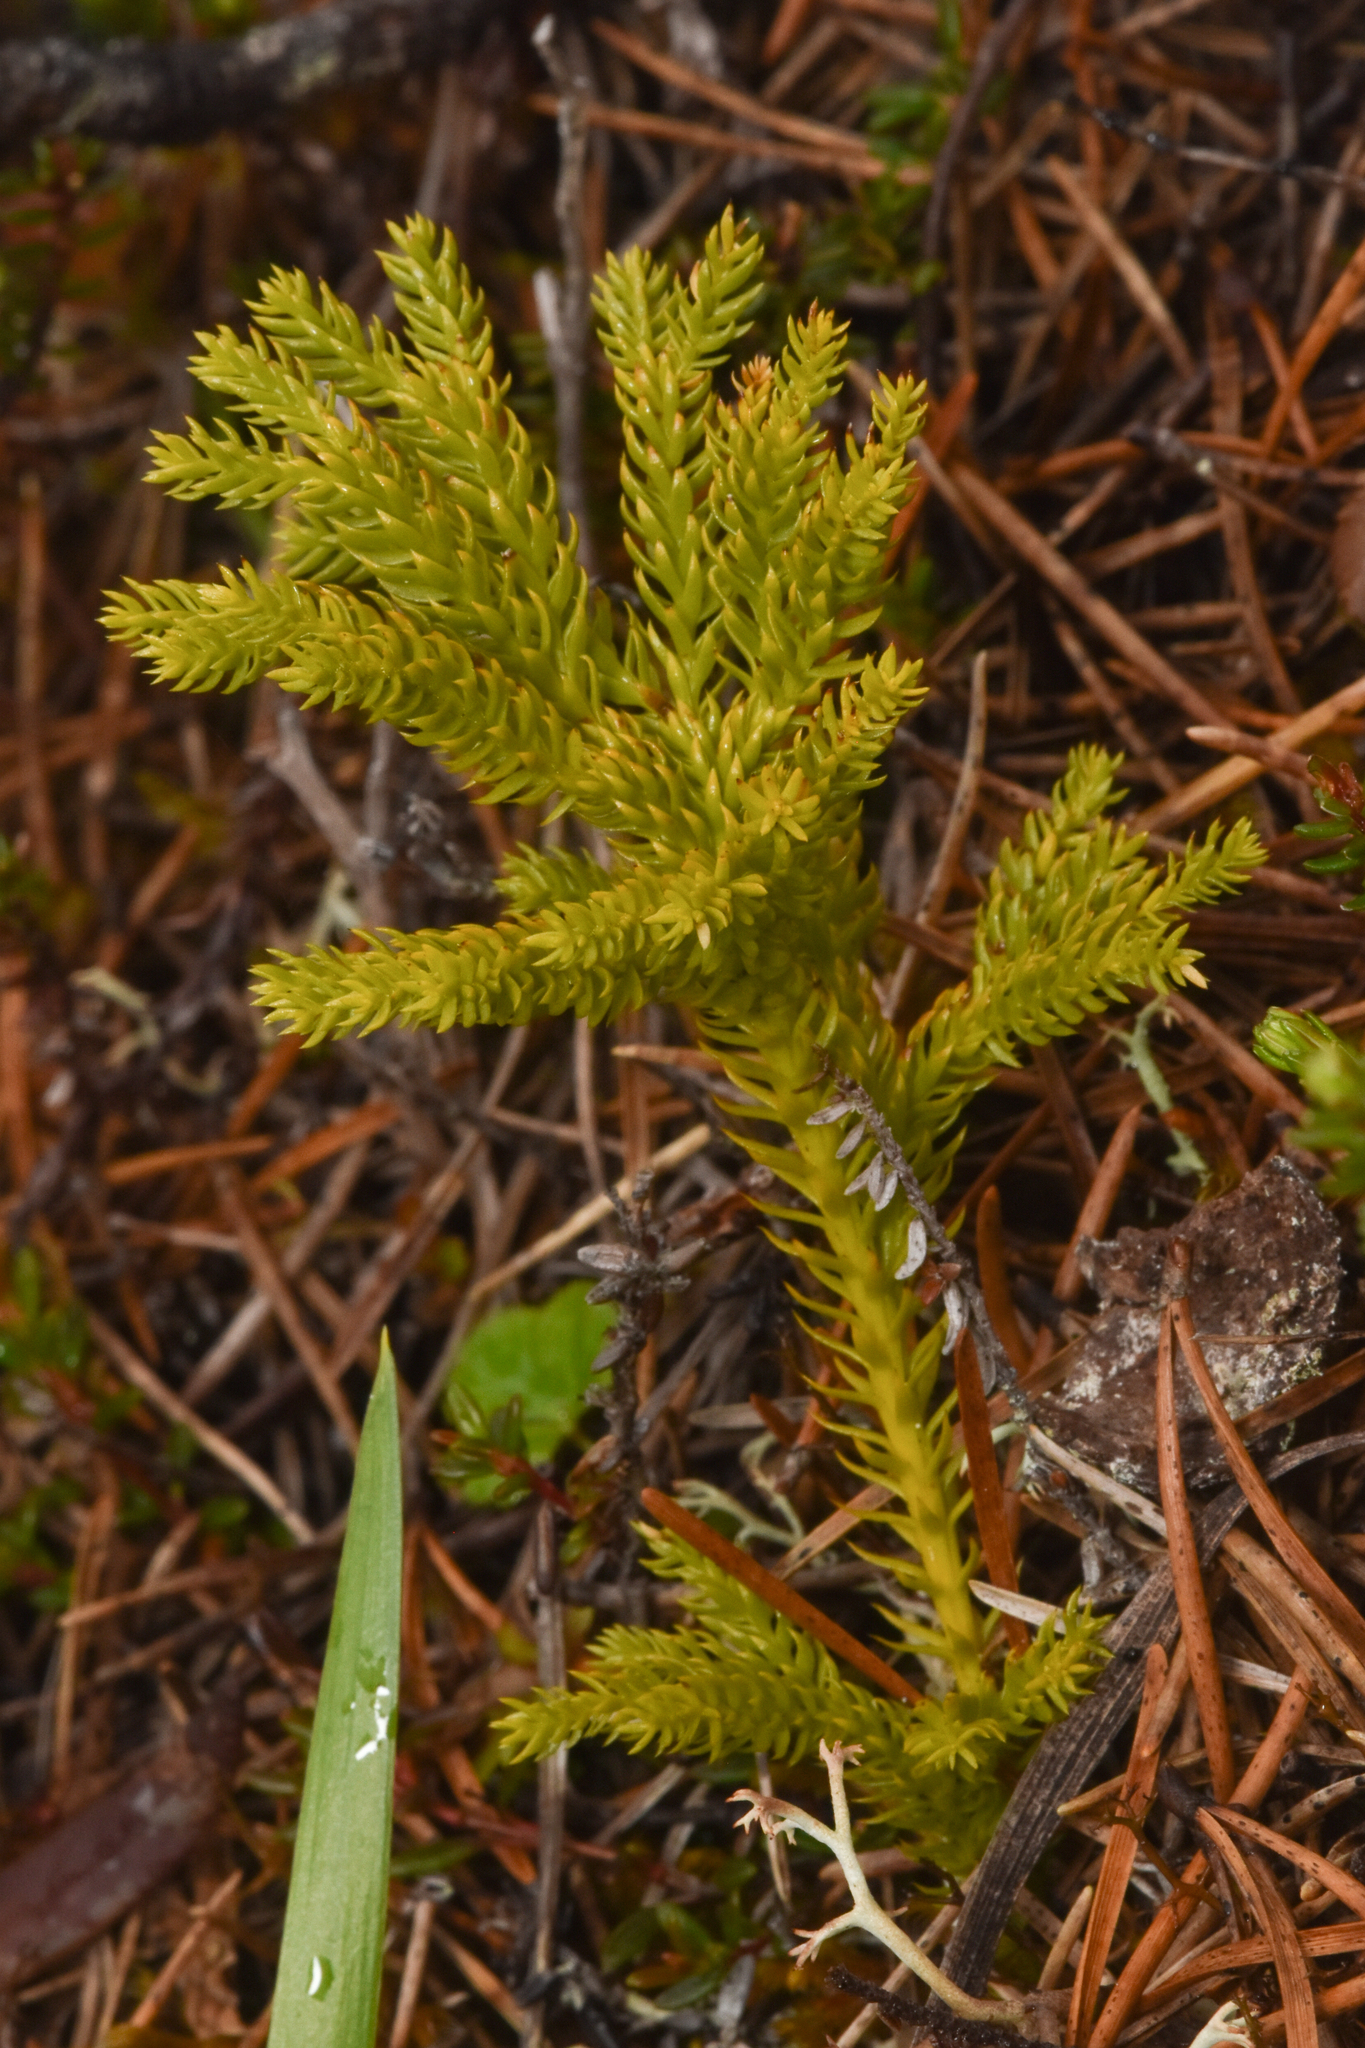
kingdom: Plantae
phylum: Tracheophyta
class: Lycopodiopsida
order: Lycopodiales
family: Lycopodiaceae
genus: Dendrolycopodium
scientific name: Dendrolycopodium dendroideum
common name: Northern tree-clubmoss
